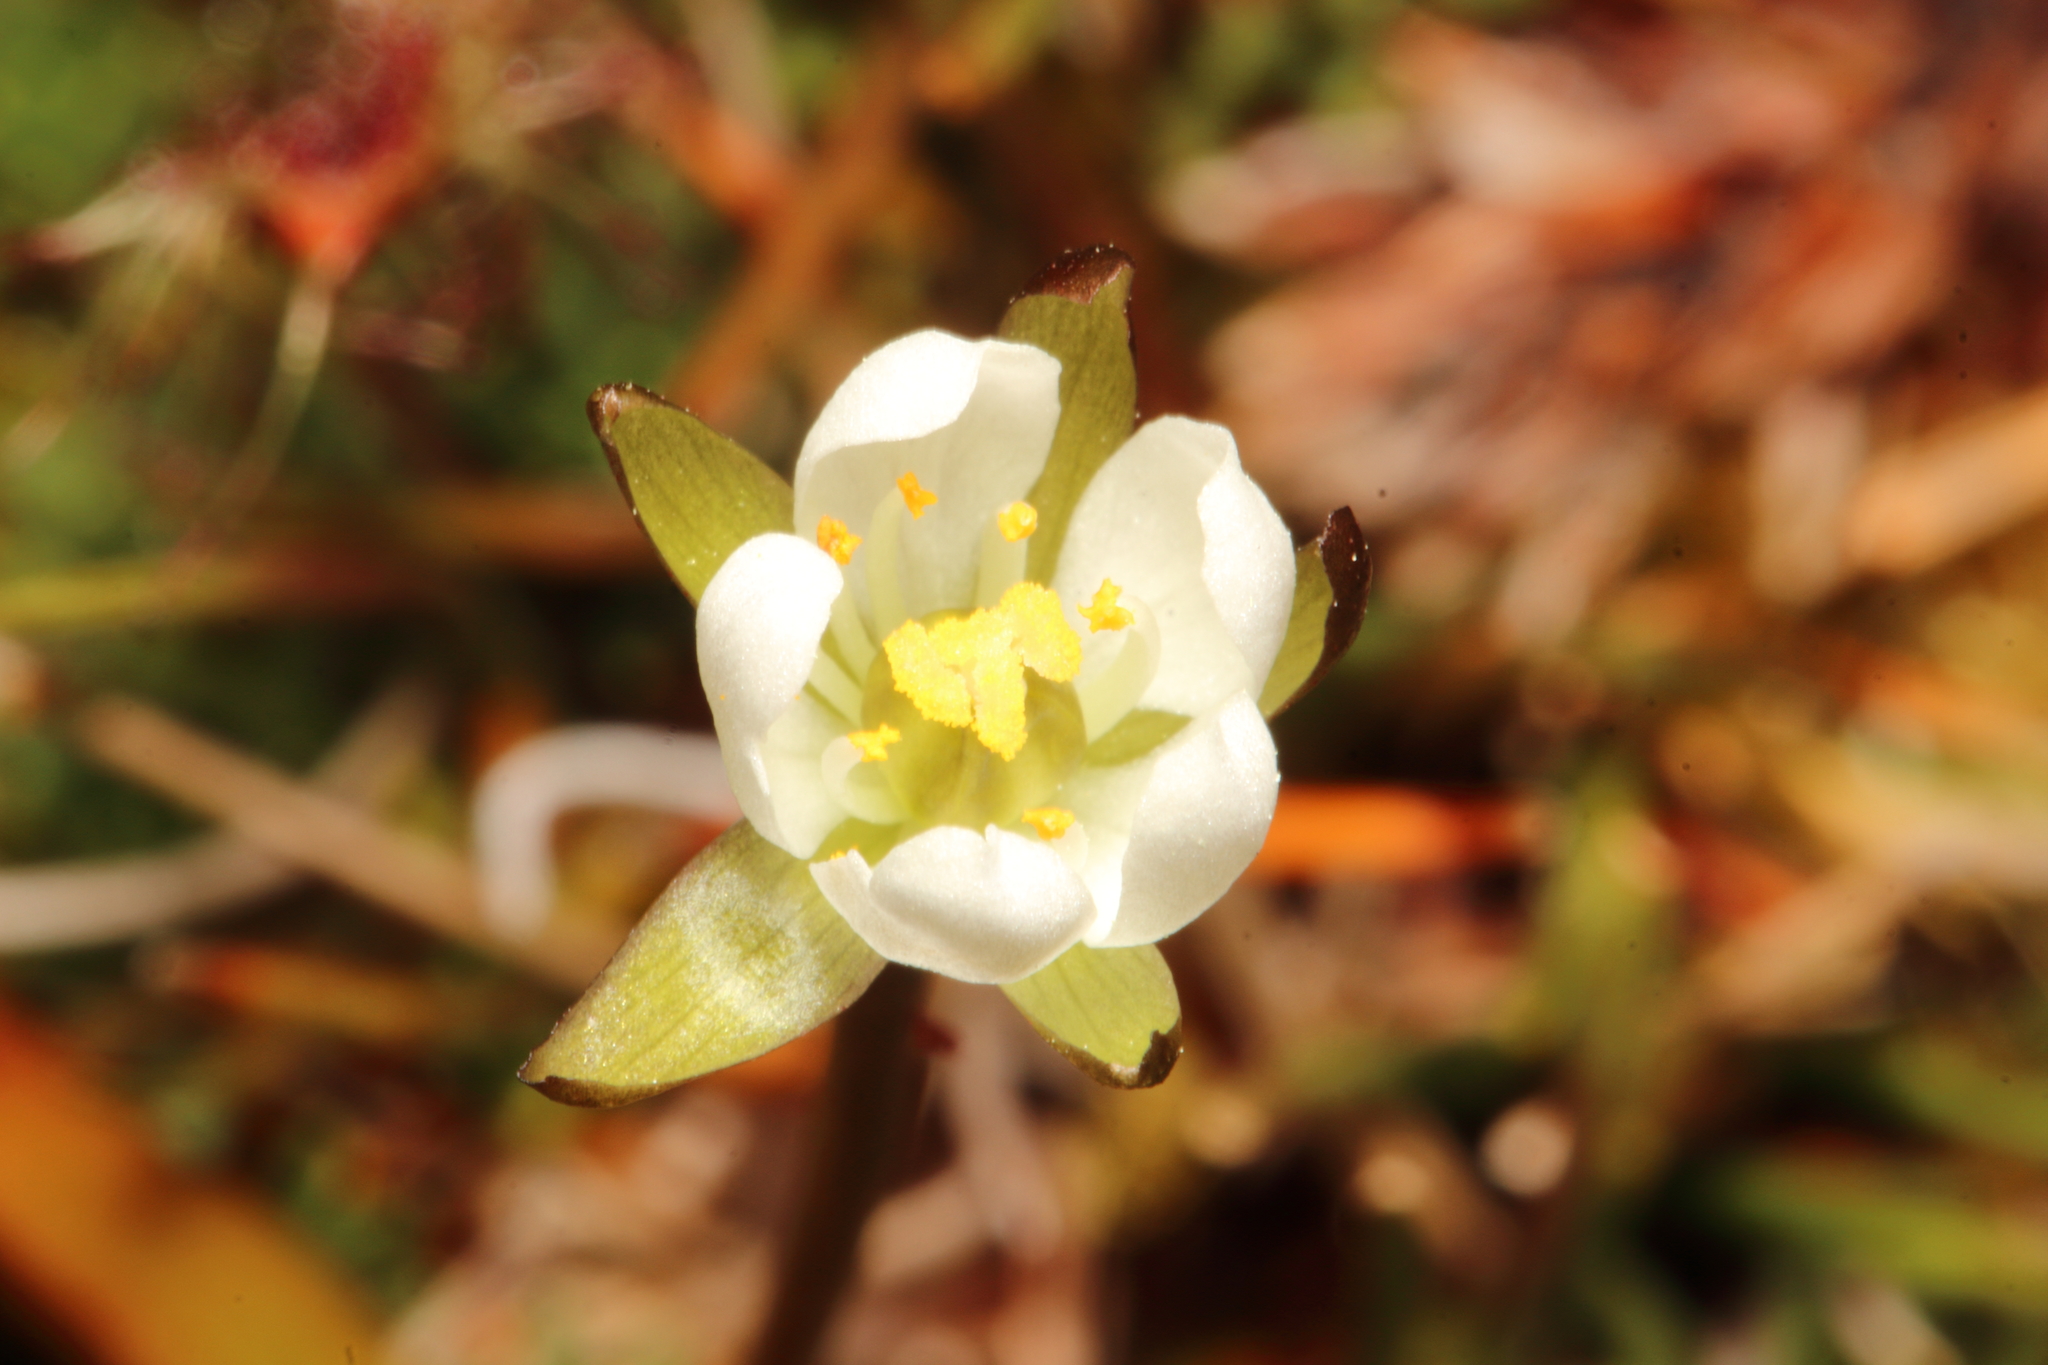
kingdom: Plantae
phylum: Tracheophyta
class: Magnoliopsida
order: Caryophyllales
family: Droseraceae
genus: Drosera
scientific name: Drosera arcturi
